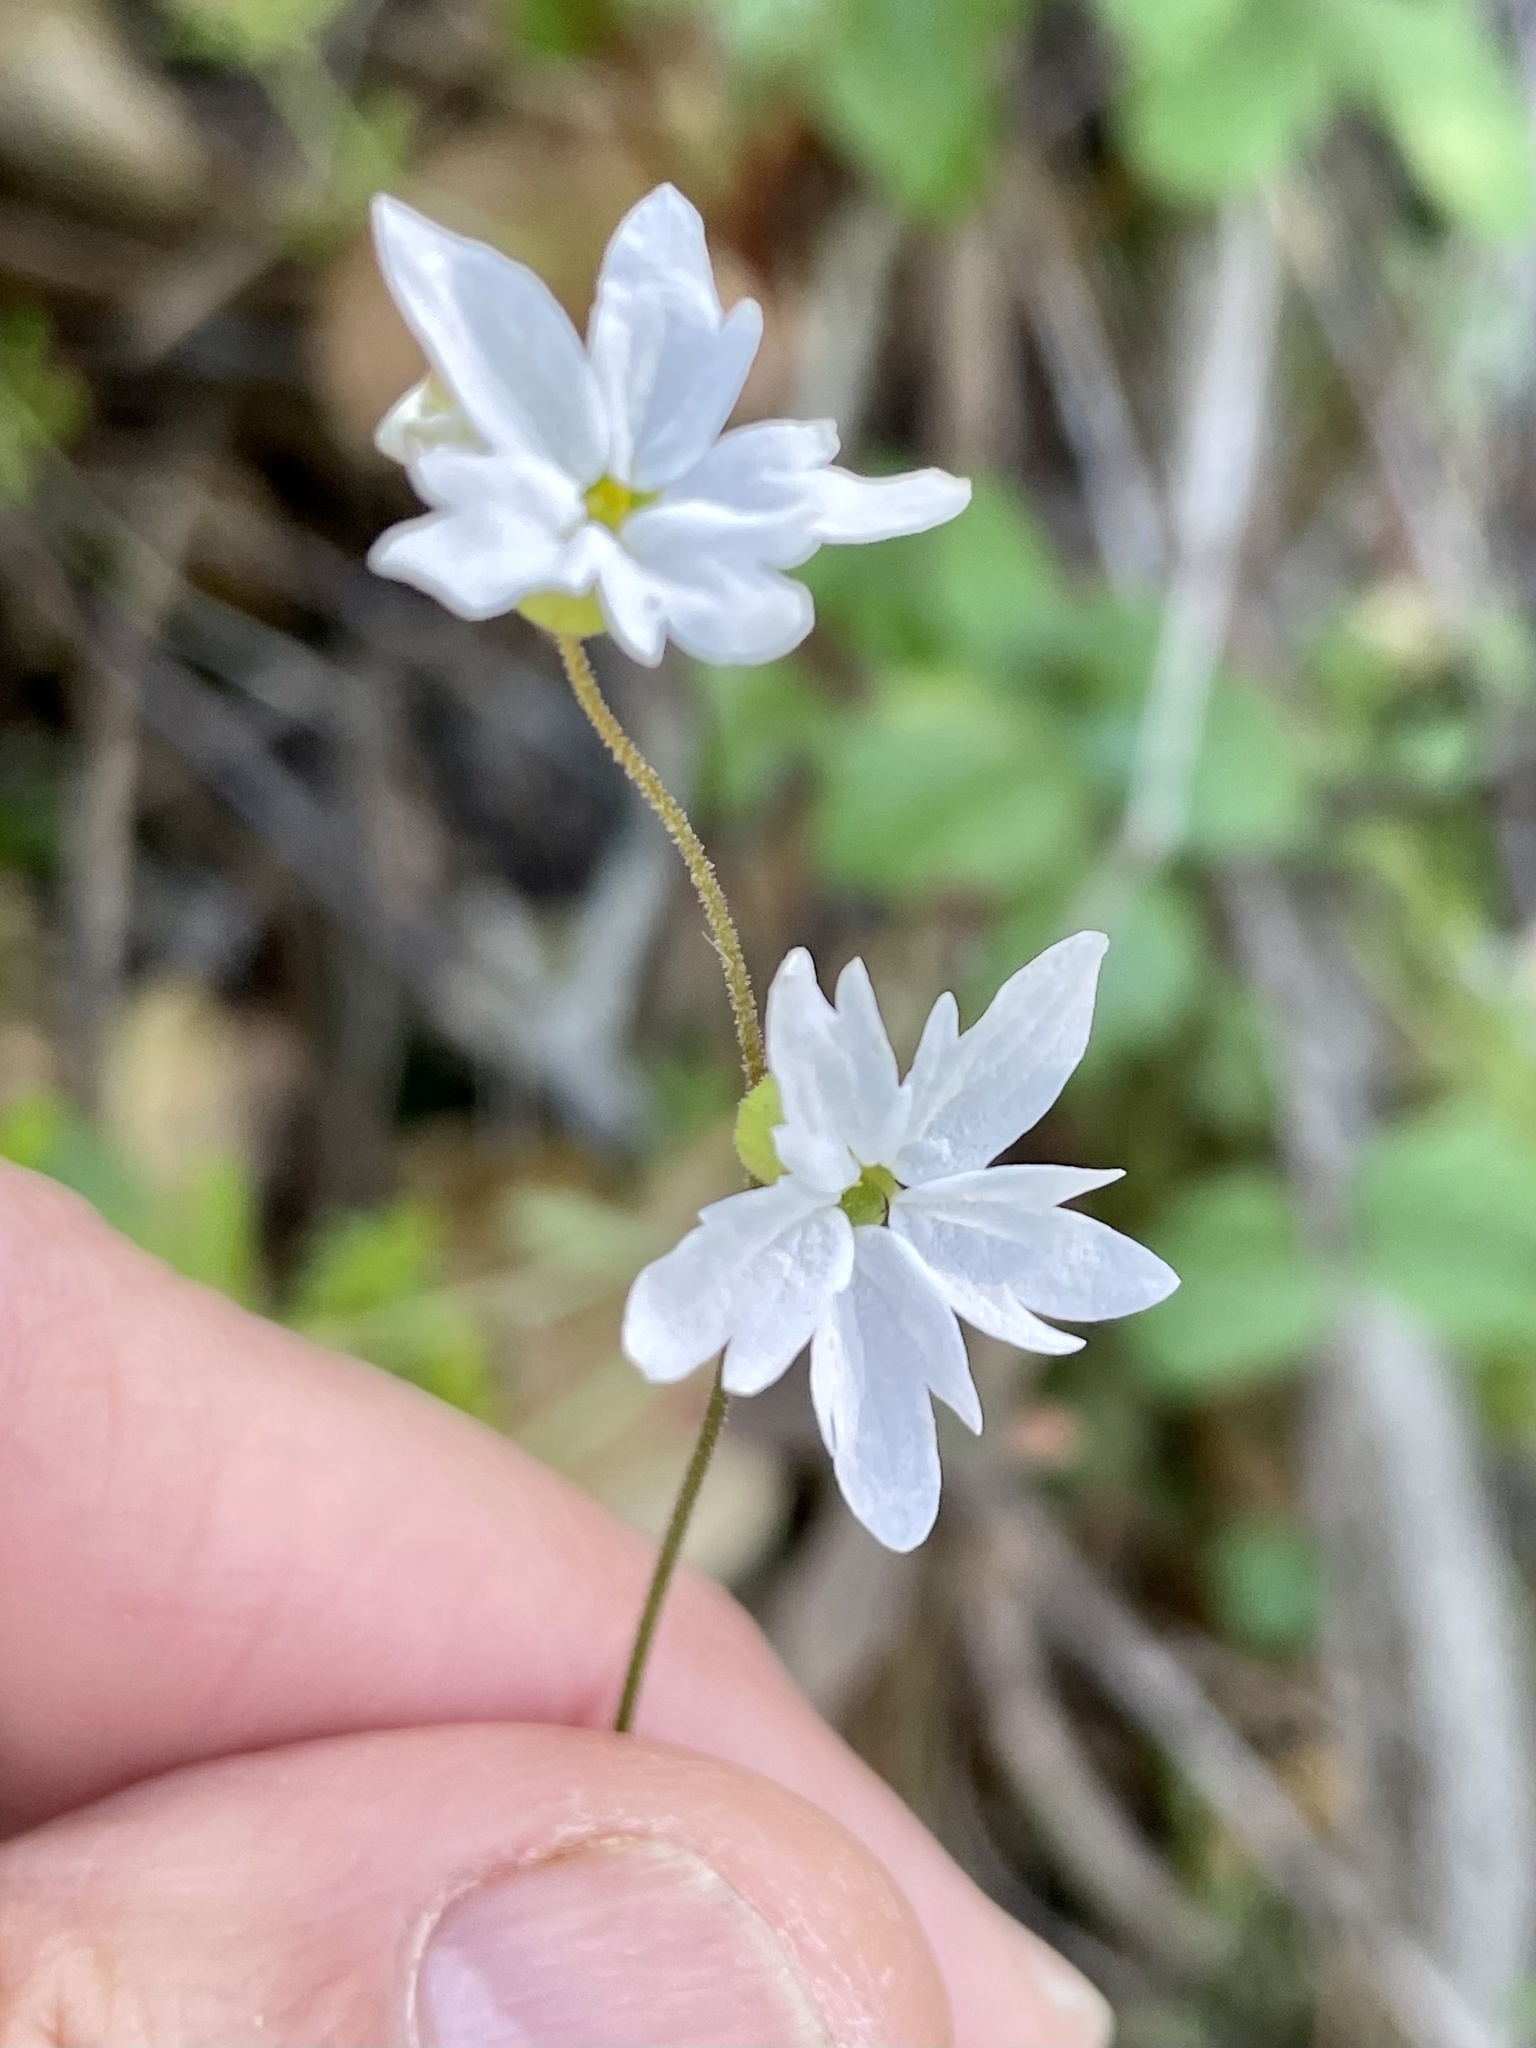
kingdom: Plantae
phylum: Tracheophyta
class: Magnoliopsida
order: Saxifragales
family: Saxifragaceae
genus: Lithophragma
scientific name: Lithophragma heterophyllum
